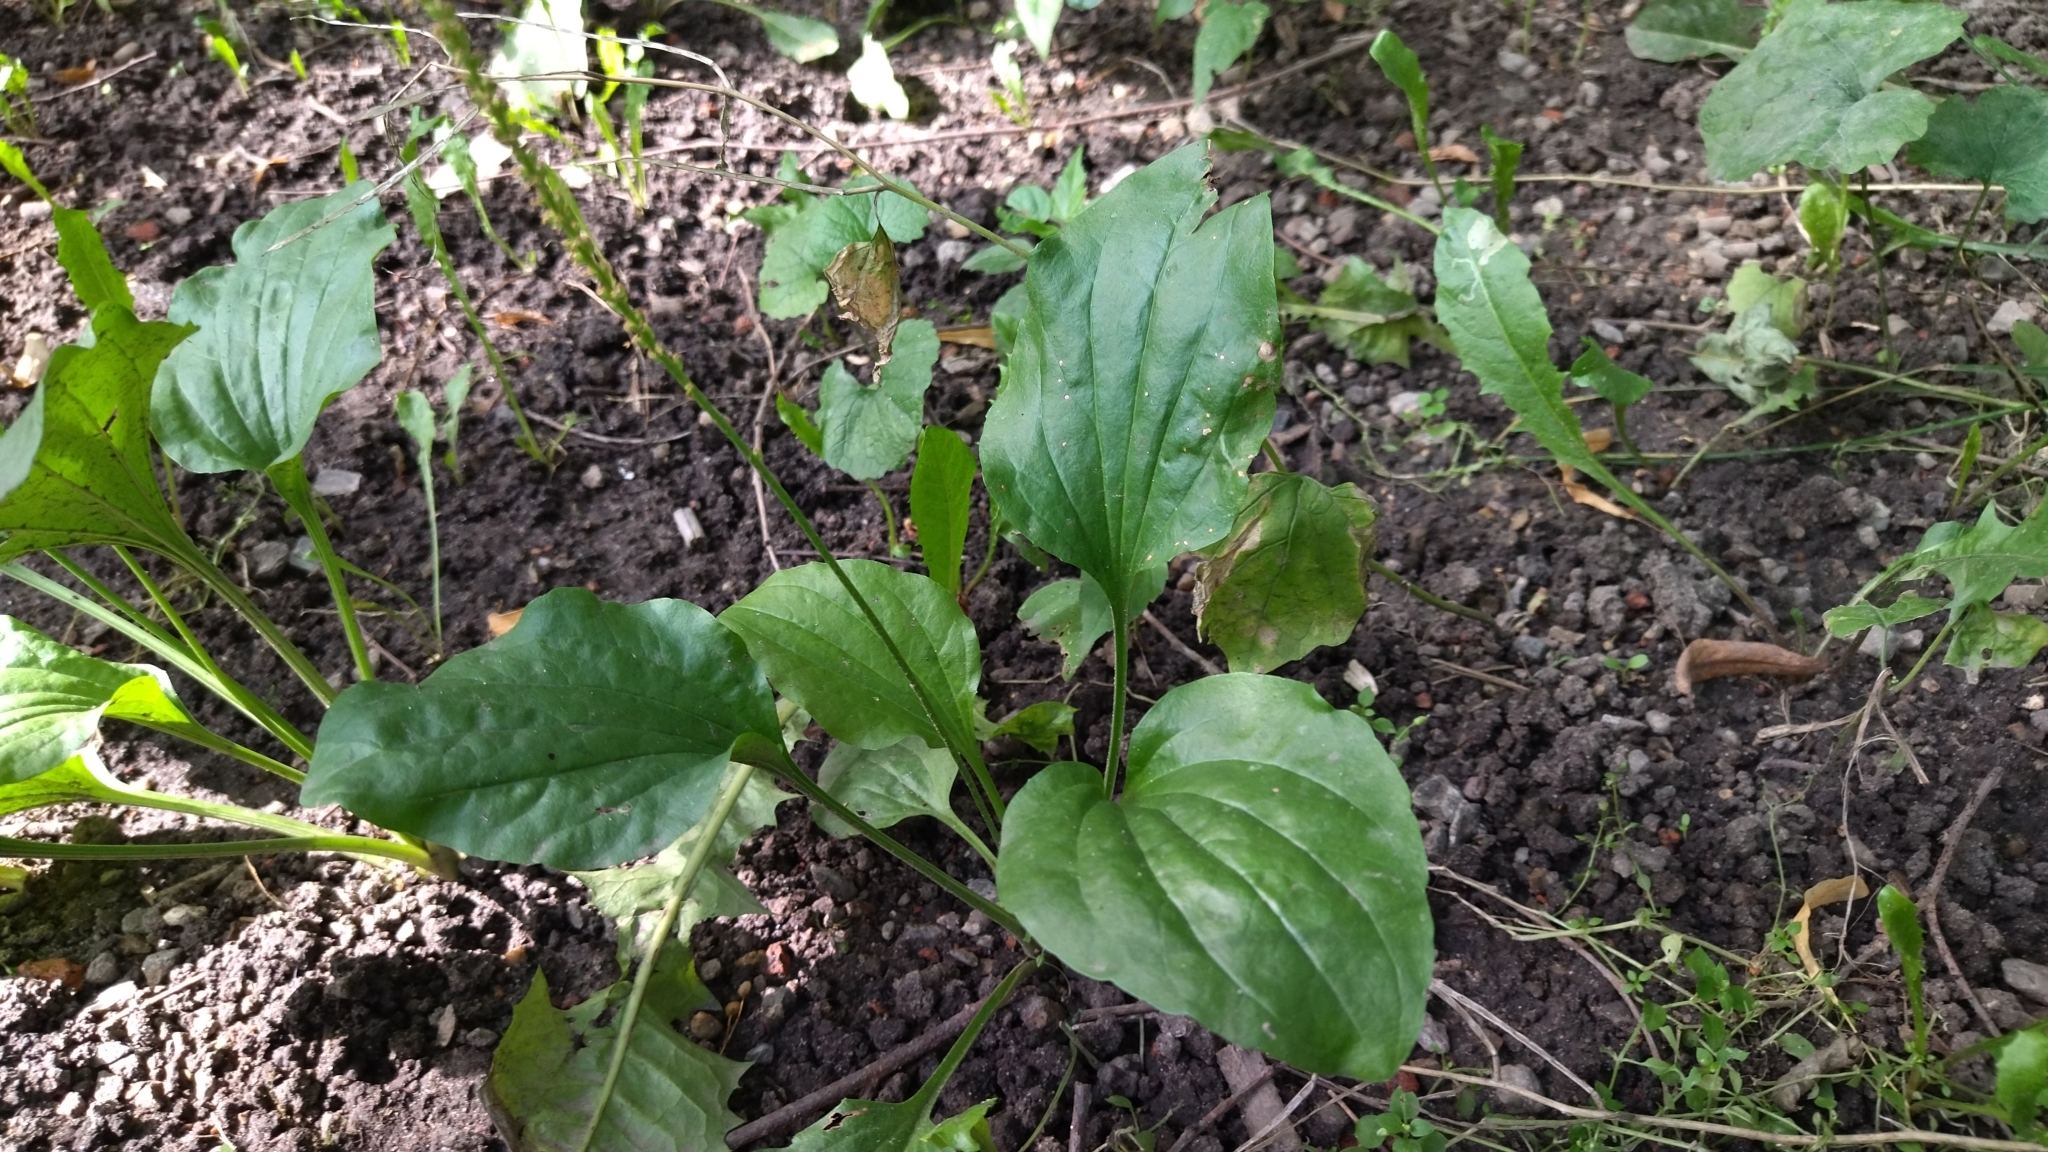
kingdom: Plantae
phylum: Tracheophyta
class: Magnoliopsida
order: Lamiales
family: Plantaginaceae
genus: Plantago
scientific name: Plantago major
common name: Common plantain
